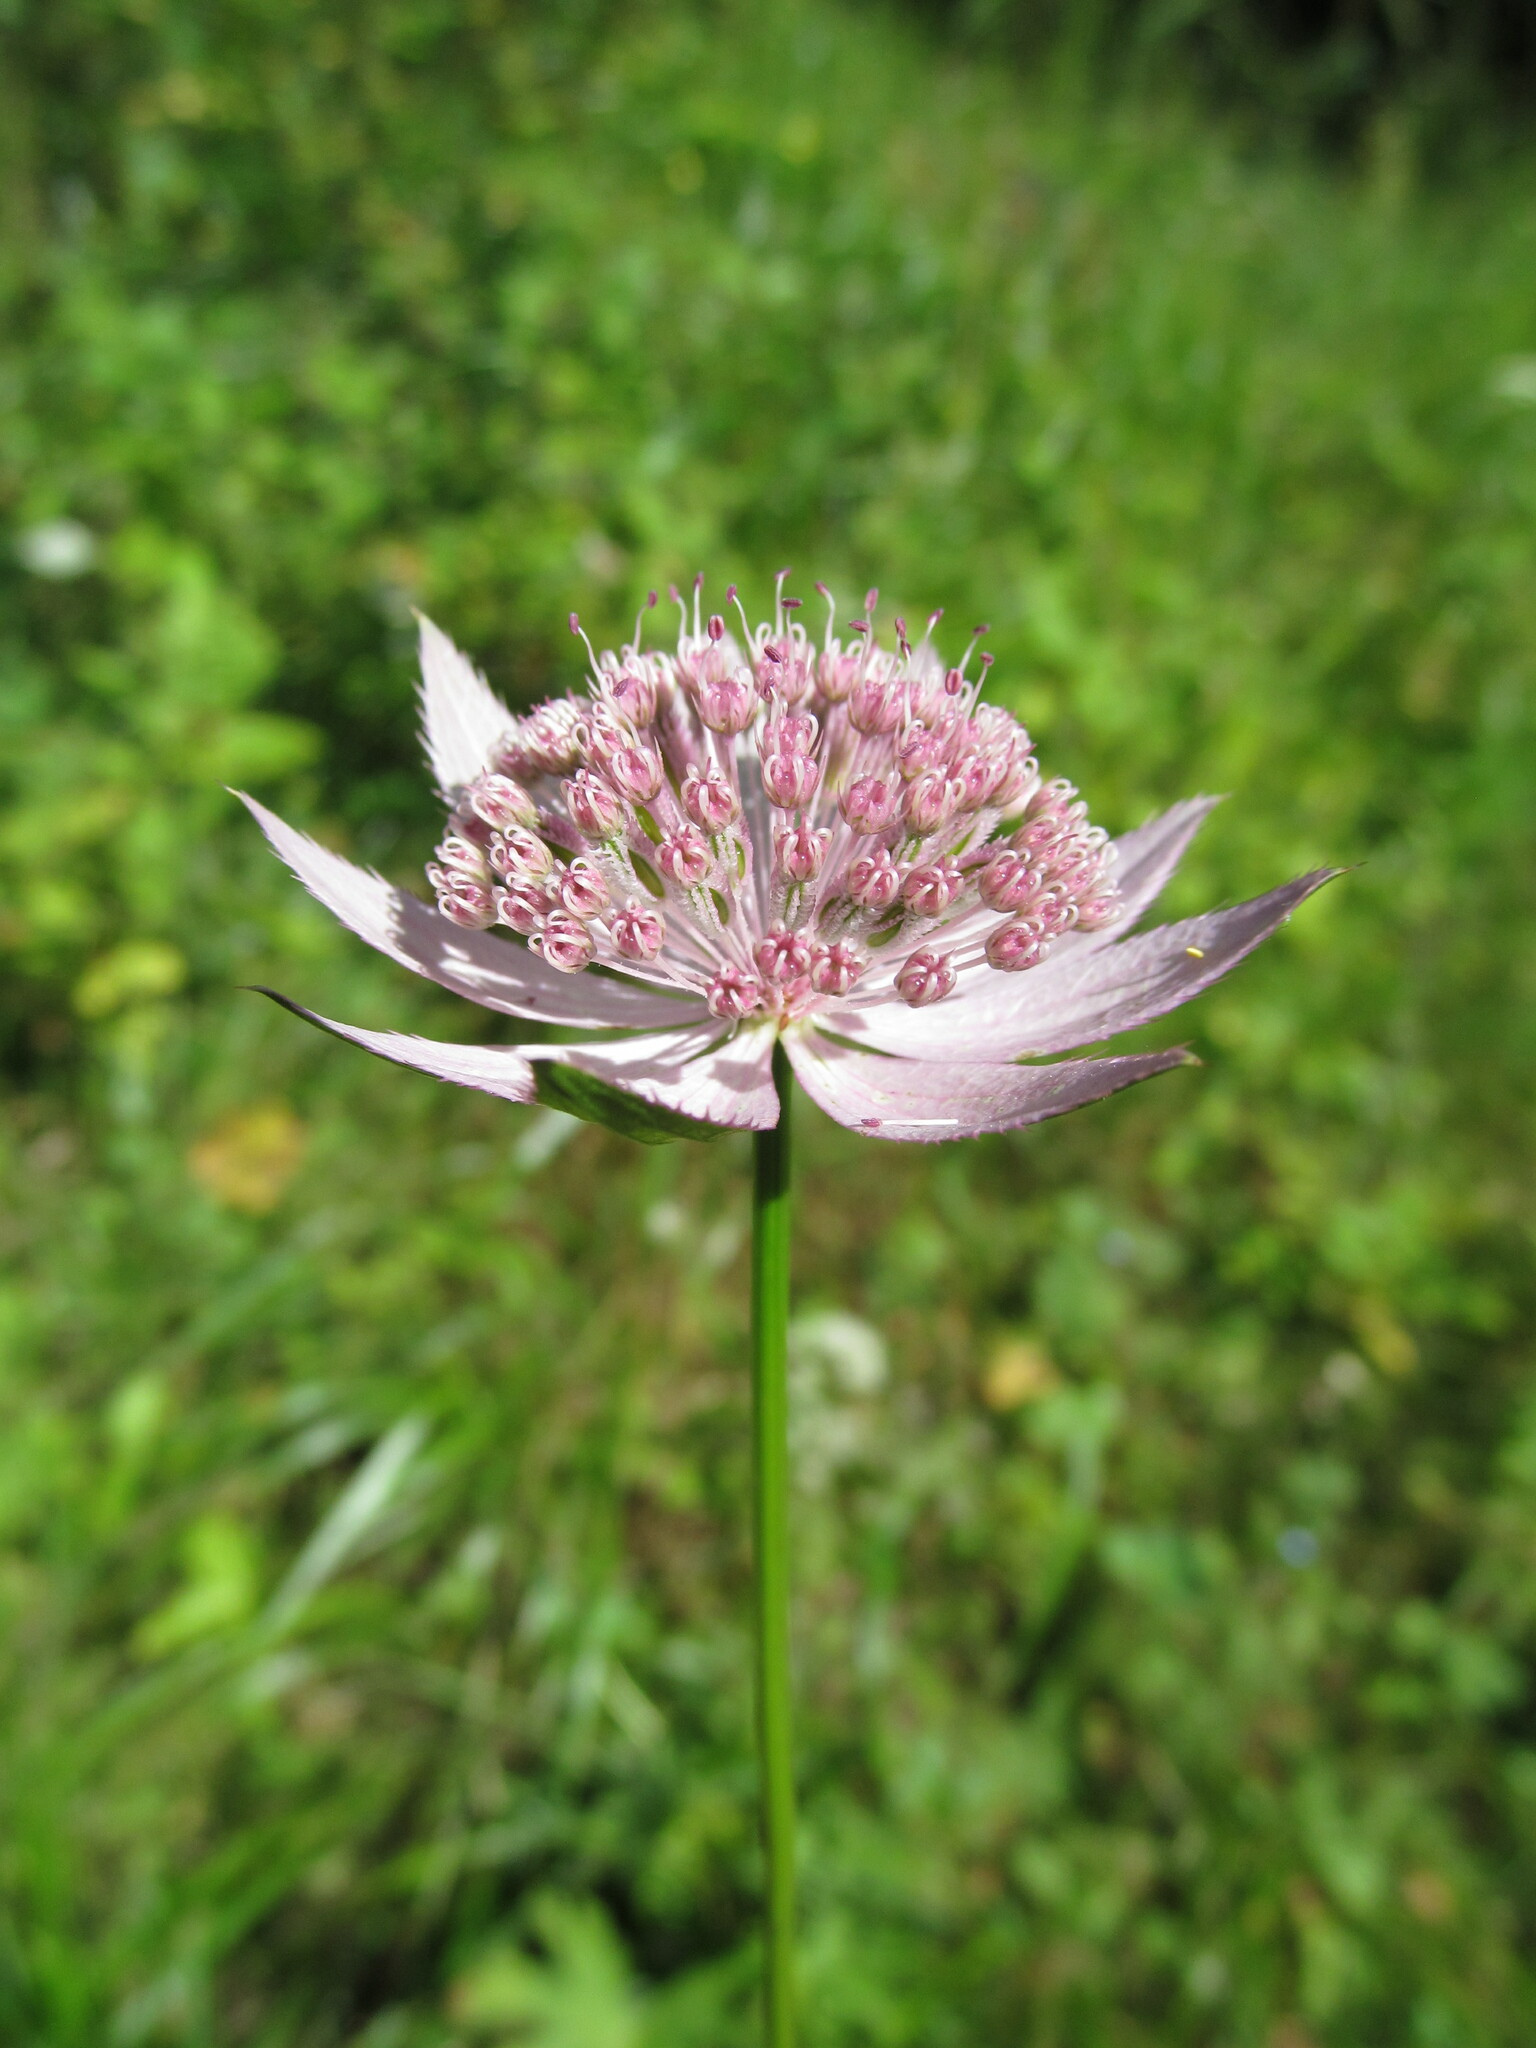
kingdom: Plantae
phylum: Tracheophyta
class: Magnoliopsida
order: Apiales
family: Apiaceae
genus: Astrantia
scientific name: Astrantia maxima
